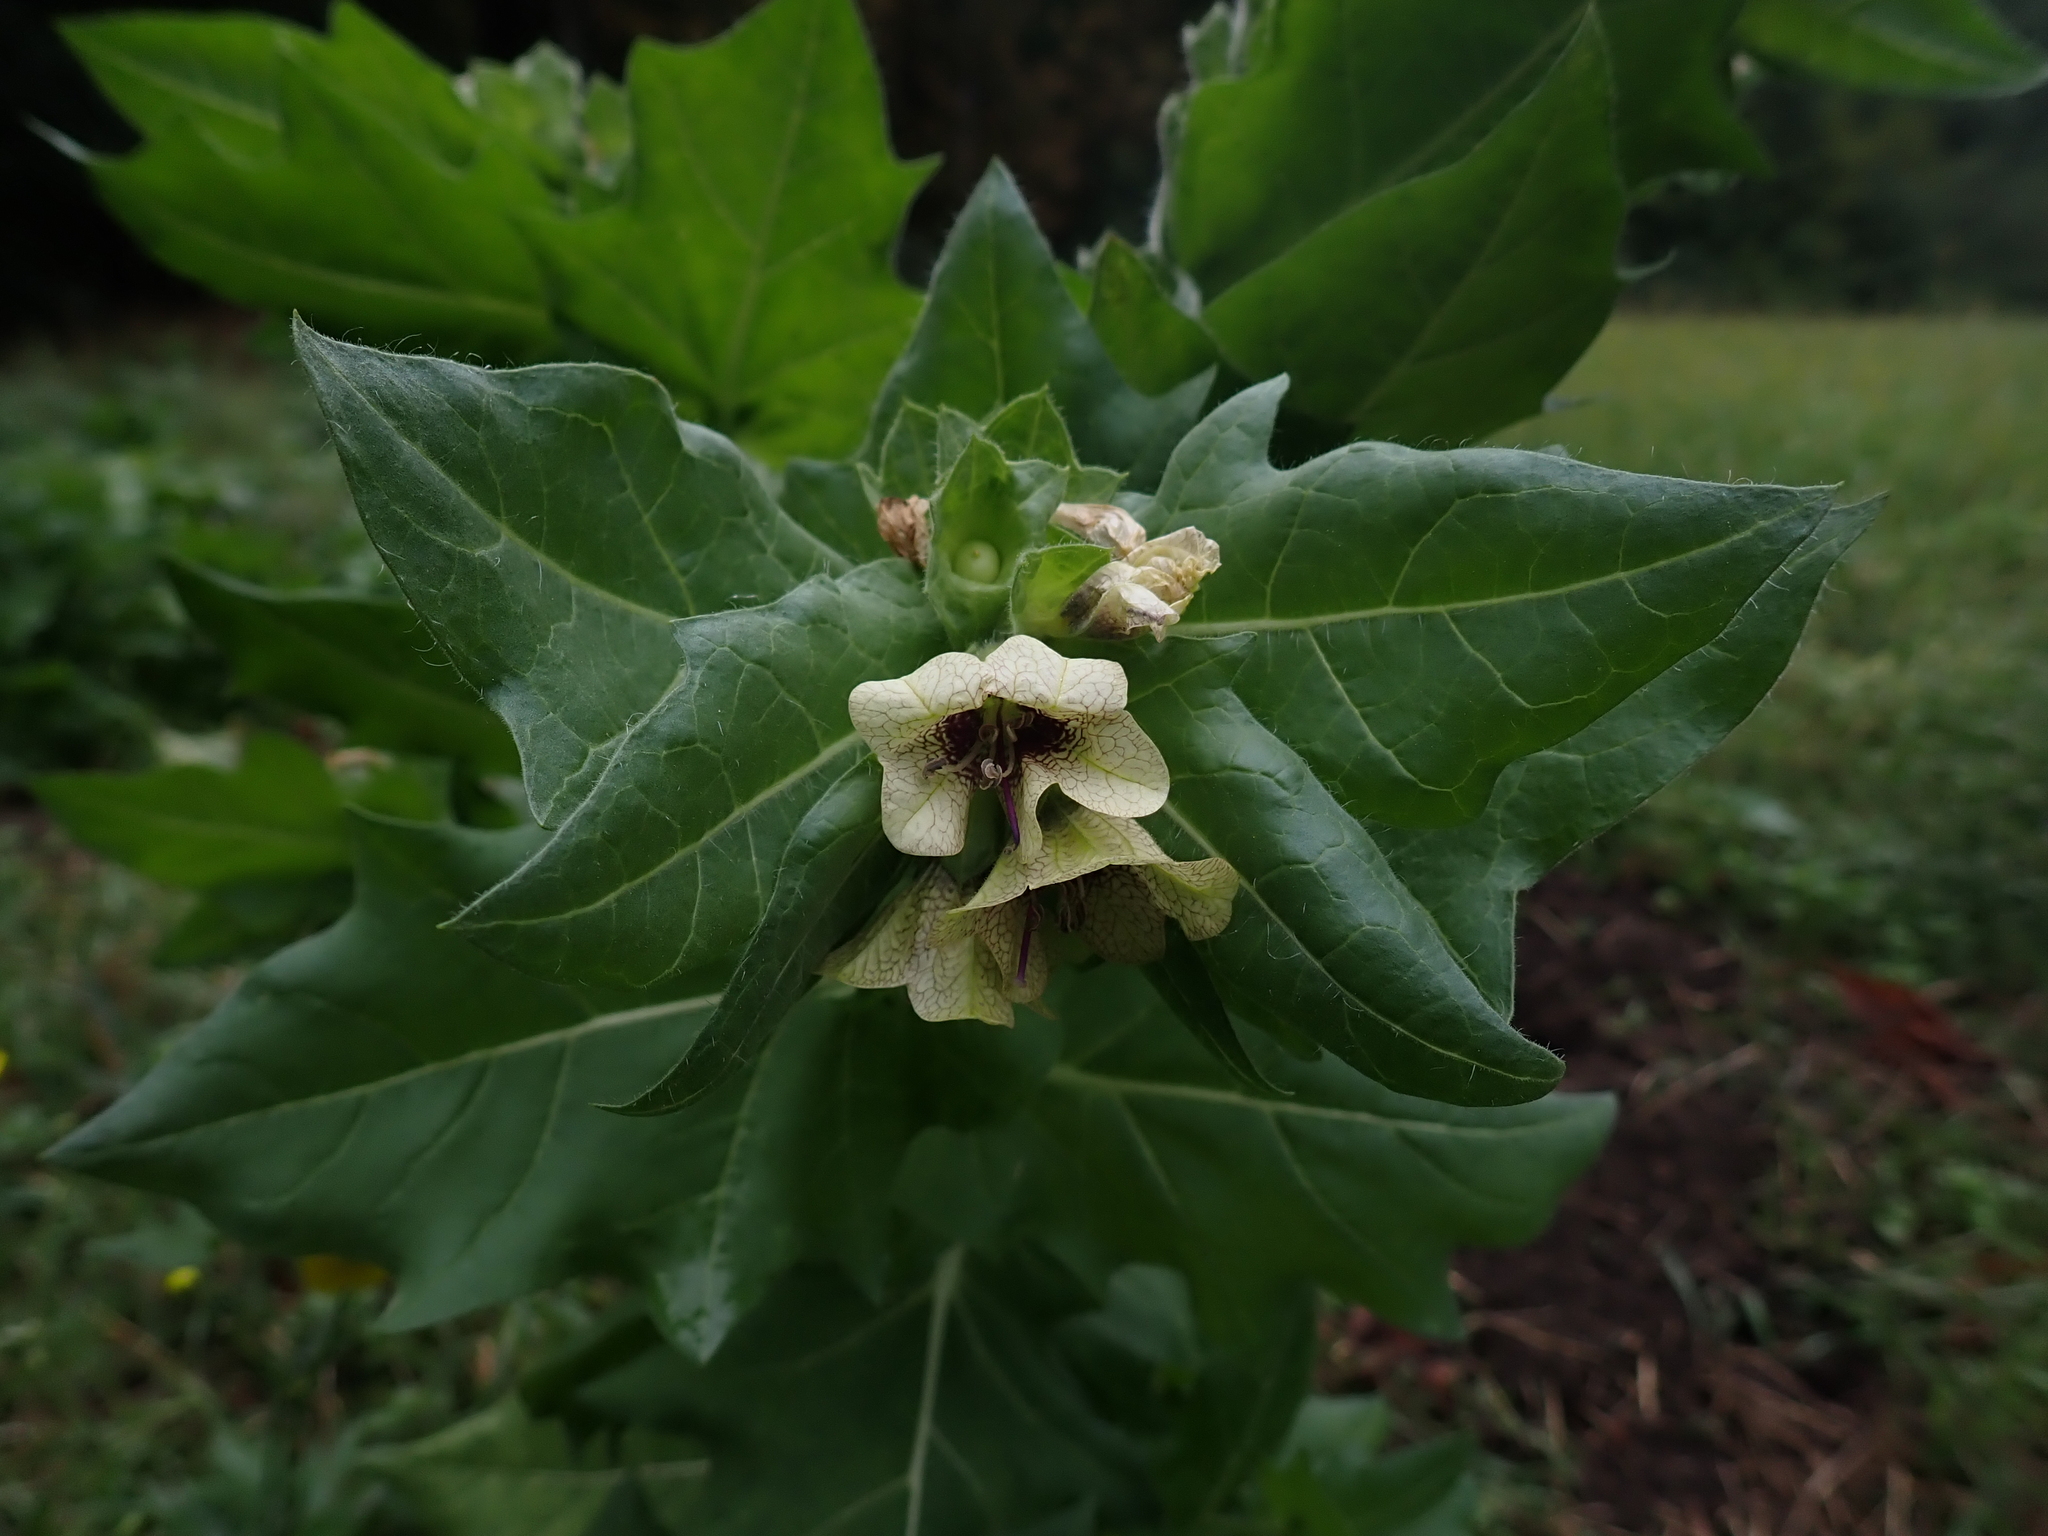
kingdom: Plantae
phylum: Tracheophyta
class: Magnoliopsida
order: Solanales
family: Solanaceae
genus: Hyoscyamus
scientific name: Hyoscyamus niger
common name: Henbane
